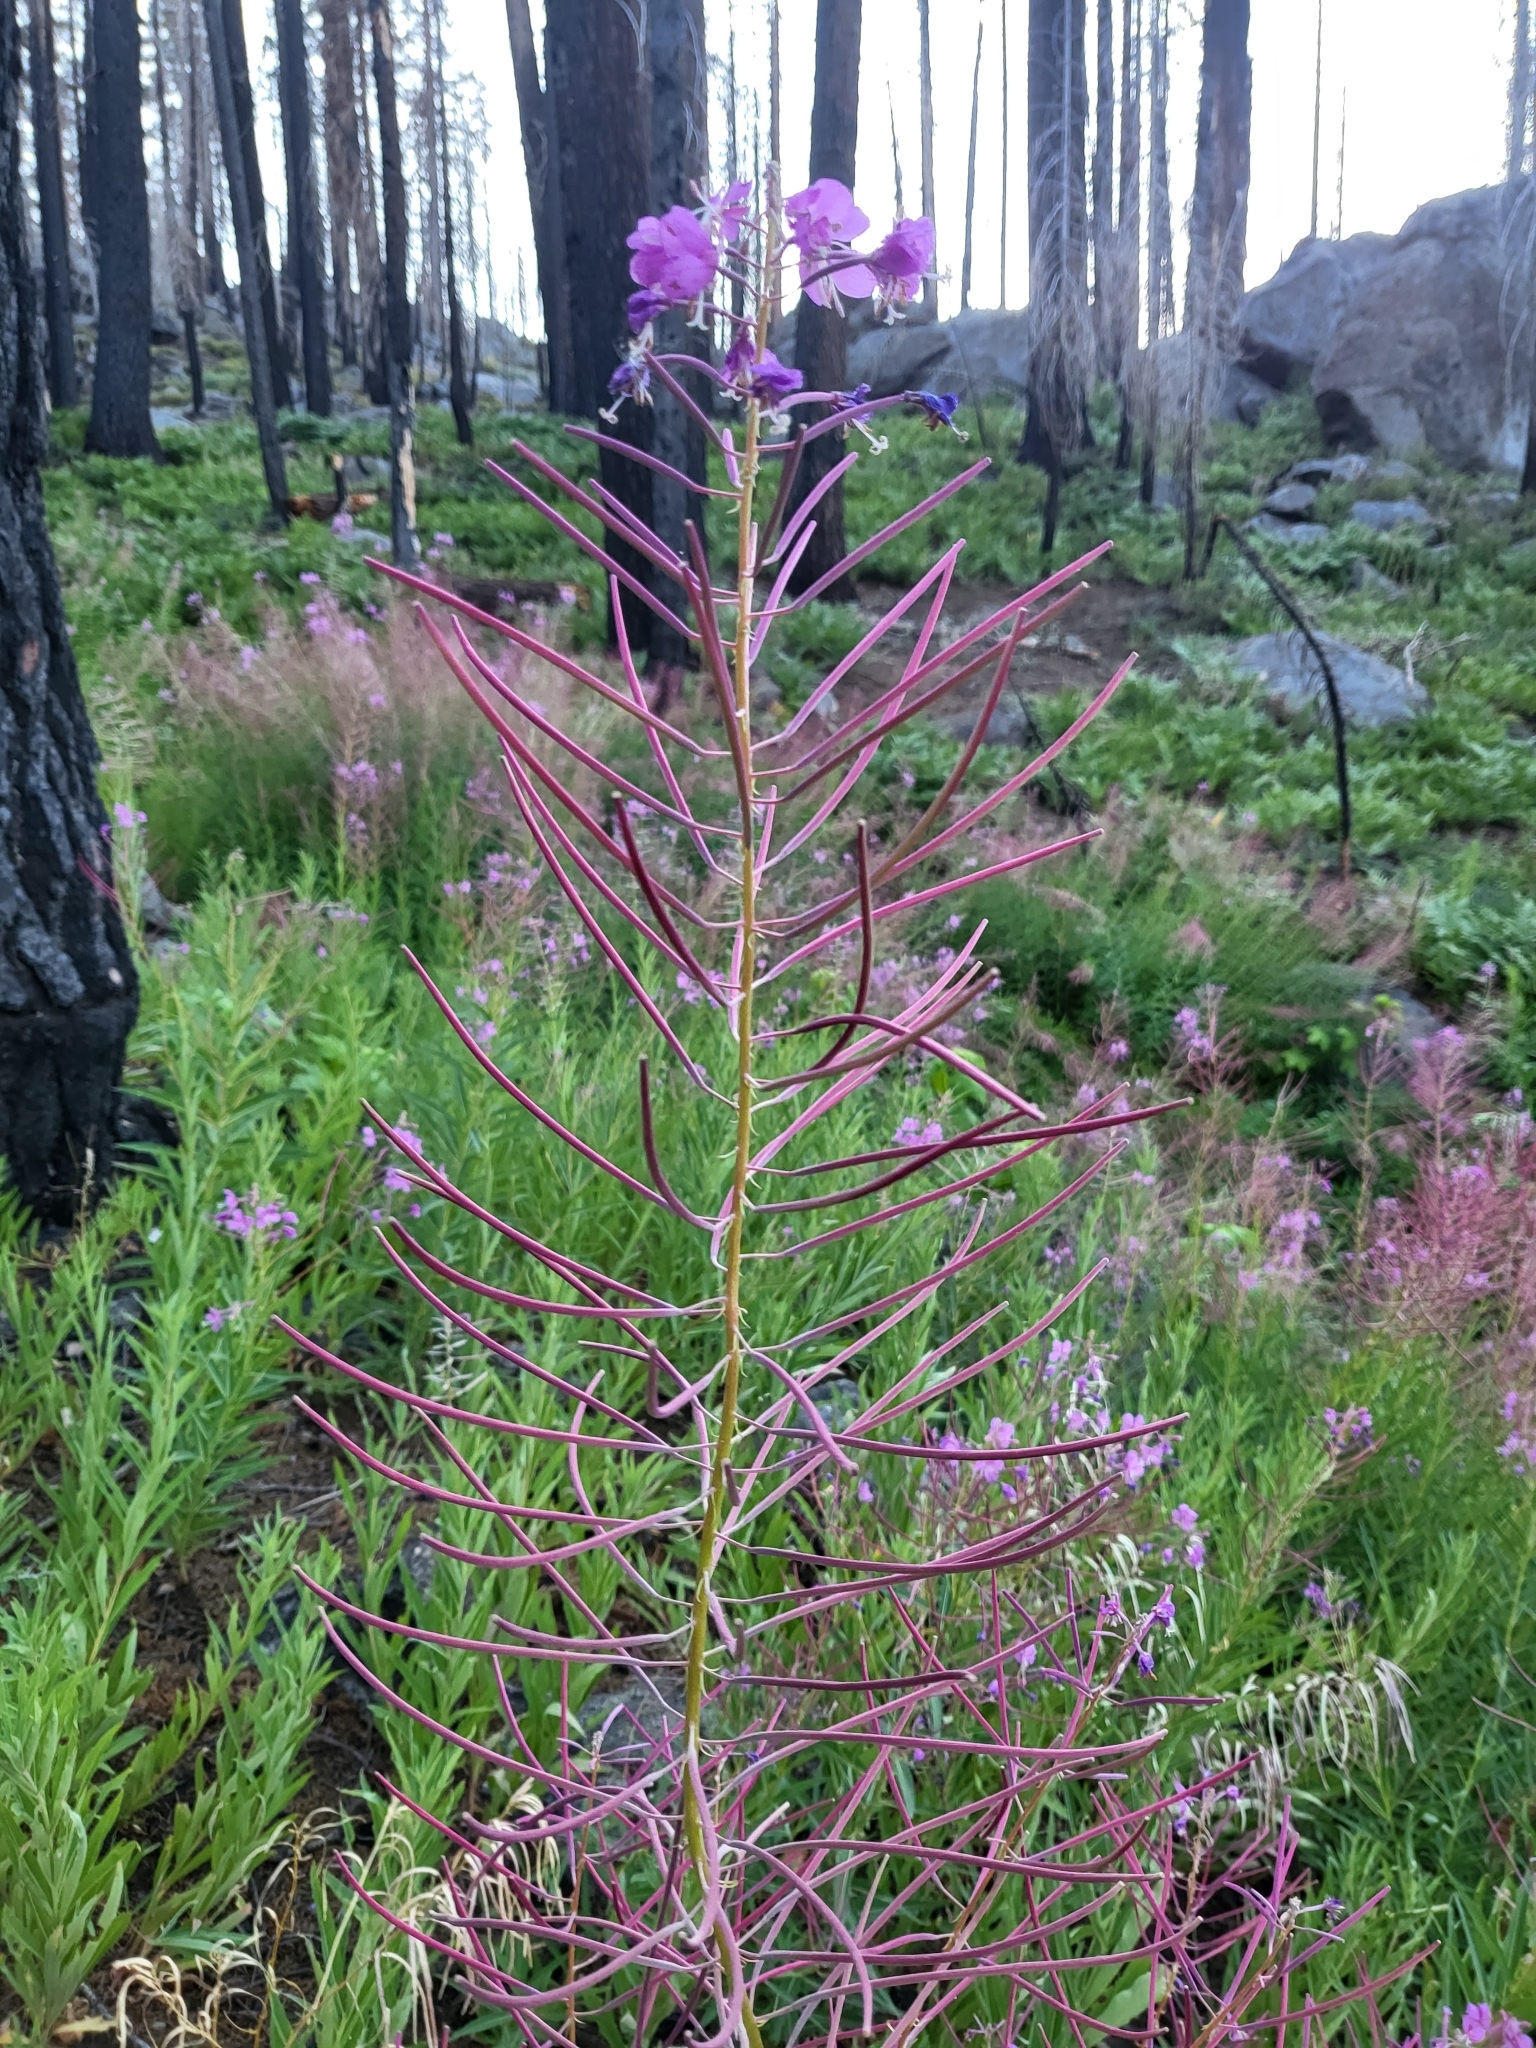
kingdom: Plantae
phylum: Tracheophyta
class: Magnoliopsida
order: Myrtales
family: Onagraceae
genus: Chamaenerion
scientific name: Chamaenerion angustifolium
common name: Fireweed
